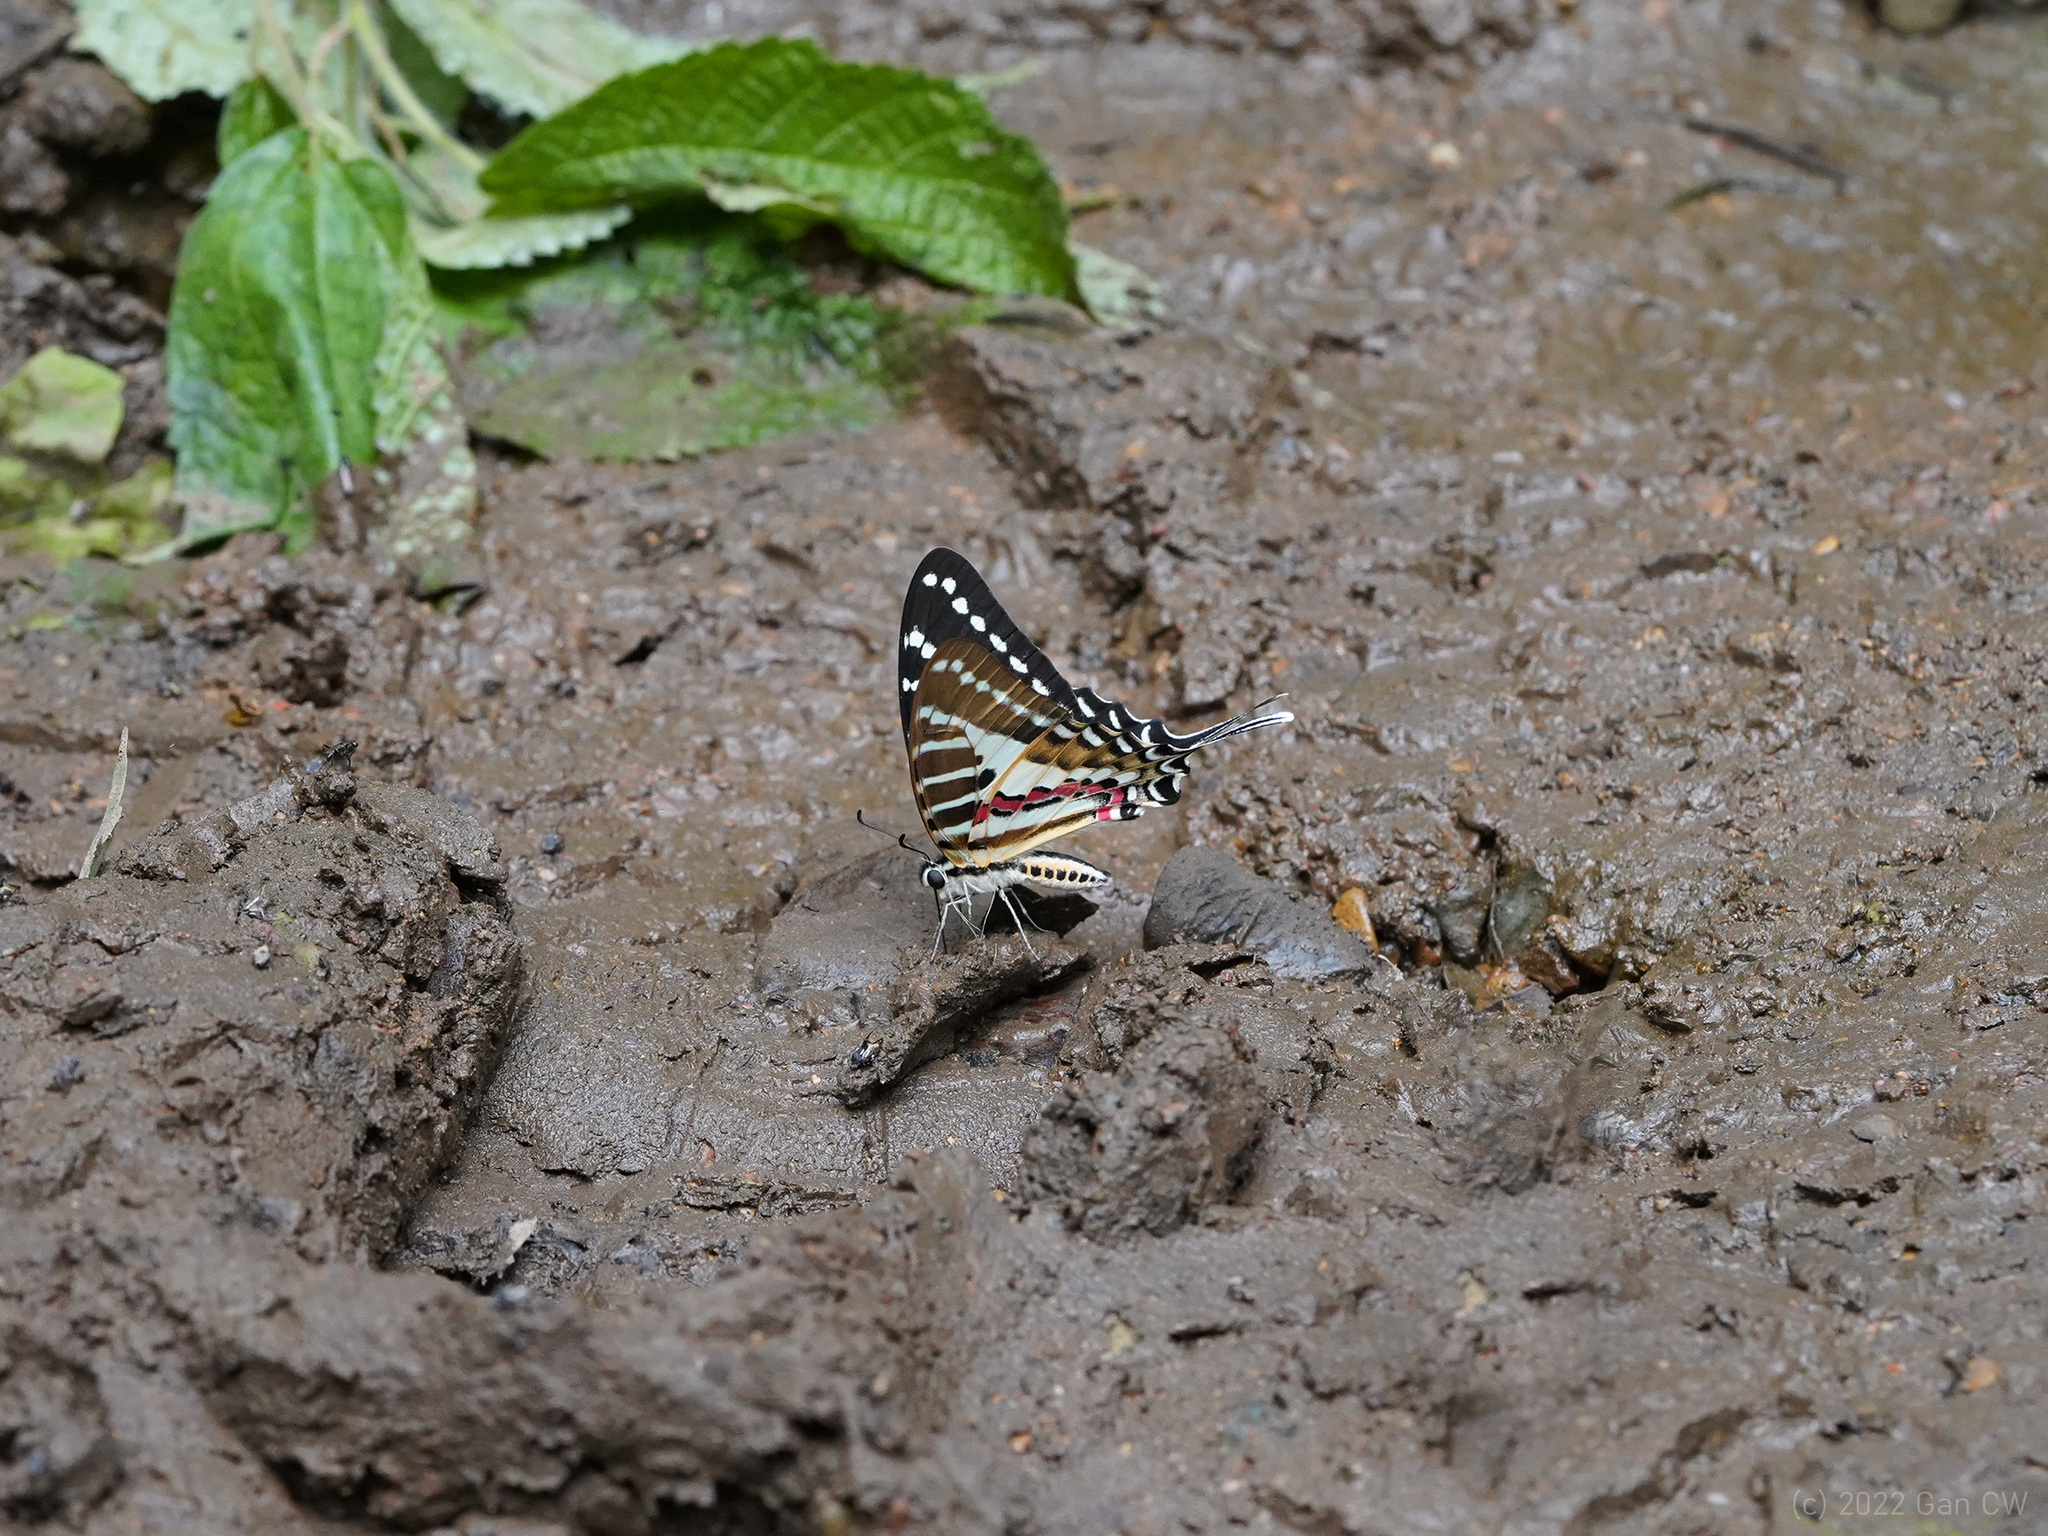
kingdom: Animalia
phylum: Arthropoda
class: Insecta
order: Lepidoptera
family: Papilionidae
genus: Graphium
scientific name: Graphium nomius
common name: Spot swordtail
